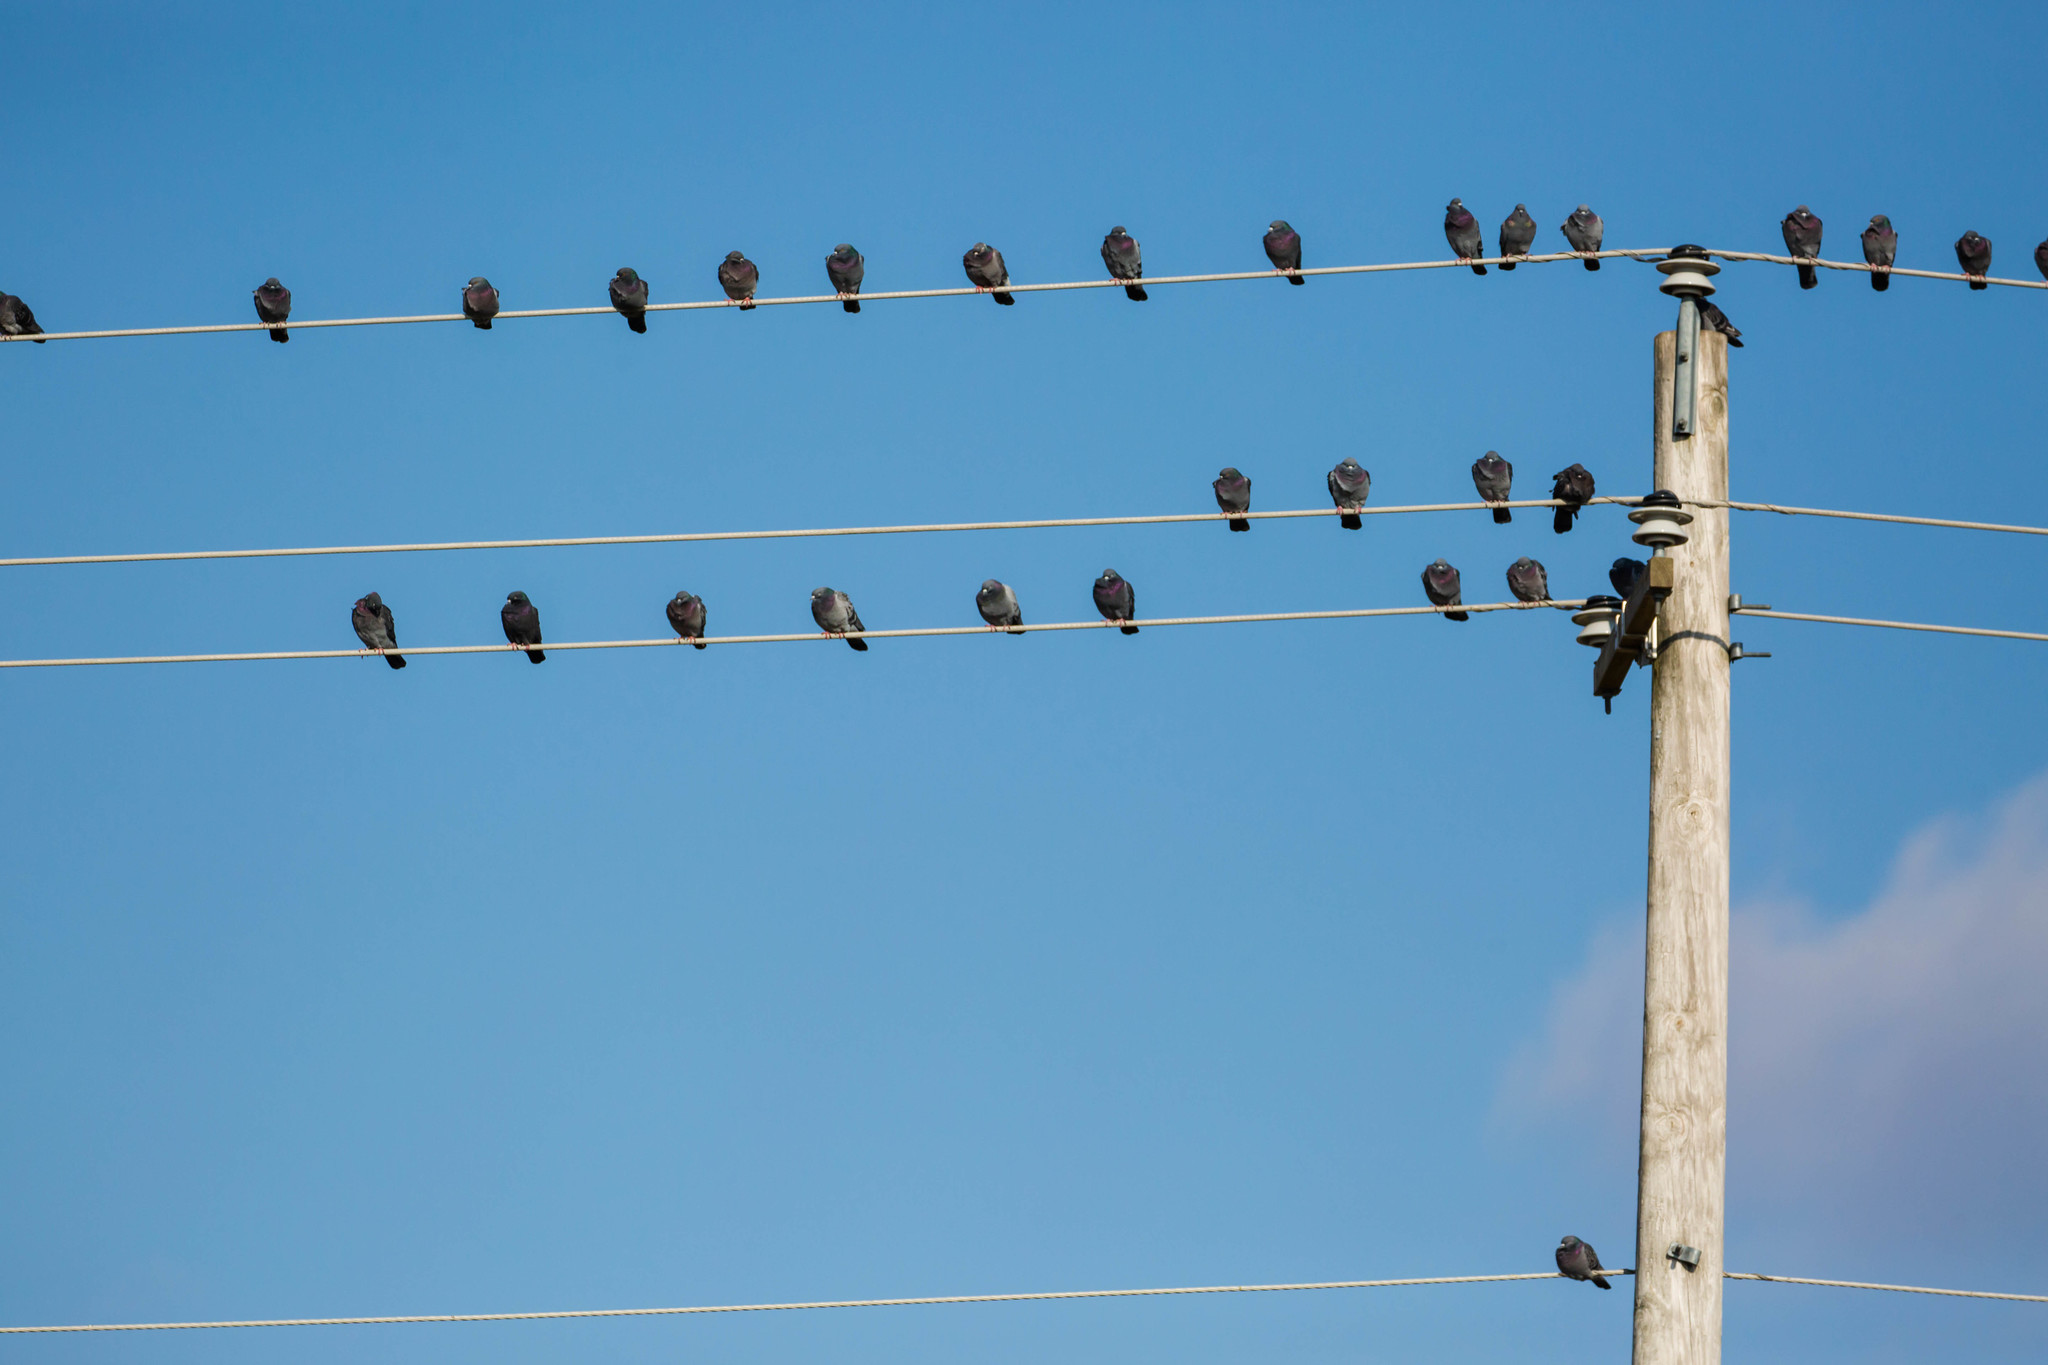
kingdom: Animalia
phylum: Chordata
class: Aves
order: Columbiformes
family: Columbidae
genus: Columba
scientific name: Columba livia
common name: Rock pigeon
